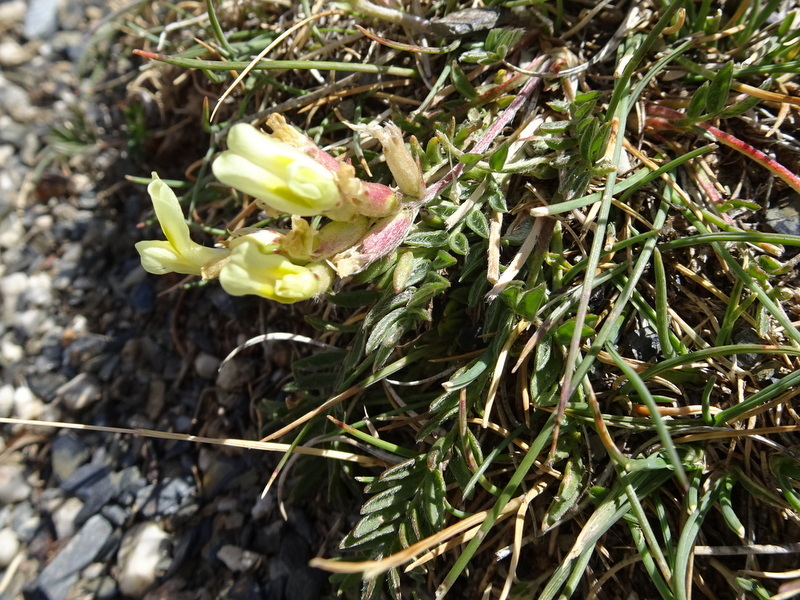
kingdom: Plantae
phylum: Tracheophyta
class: Magnoliopsida
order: Fabales
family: Fabaceae
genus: Oxytropis
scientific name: Oxytropis campestris
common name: Field locoweed
